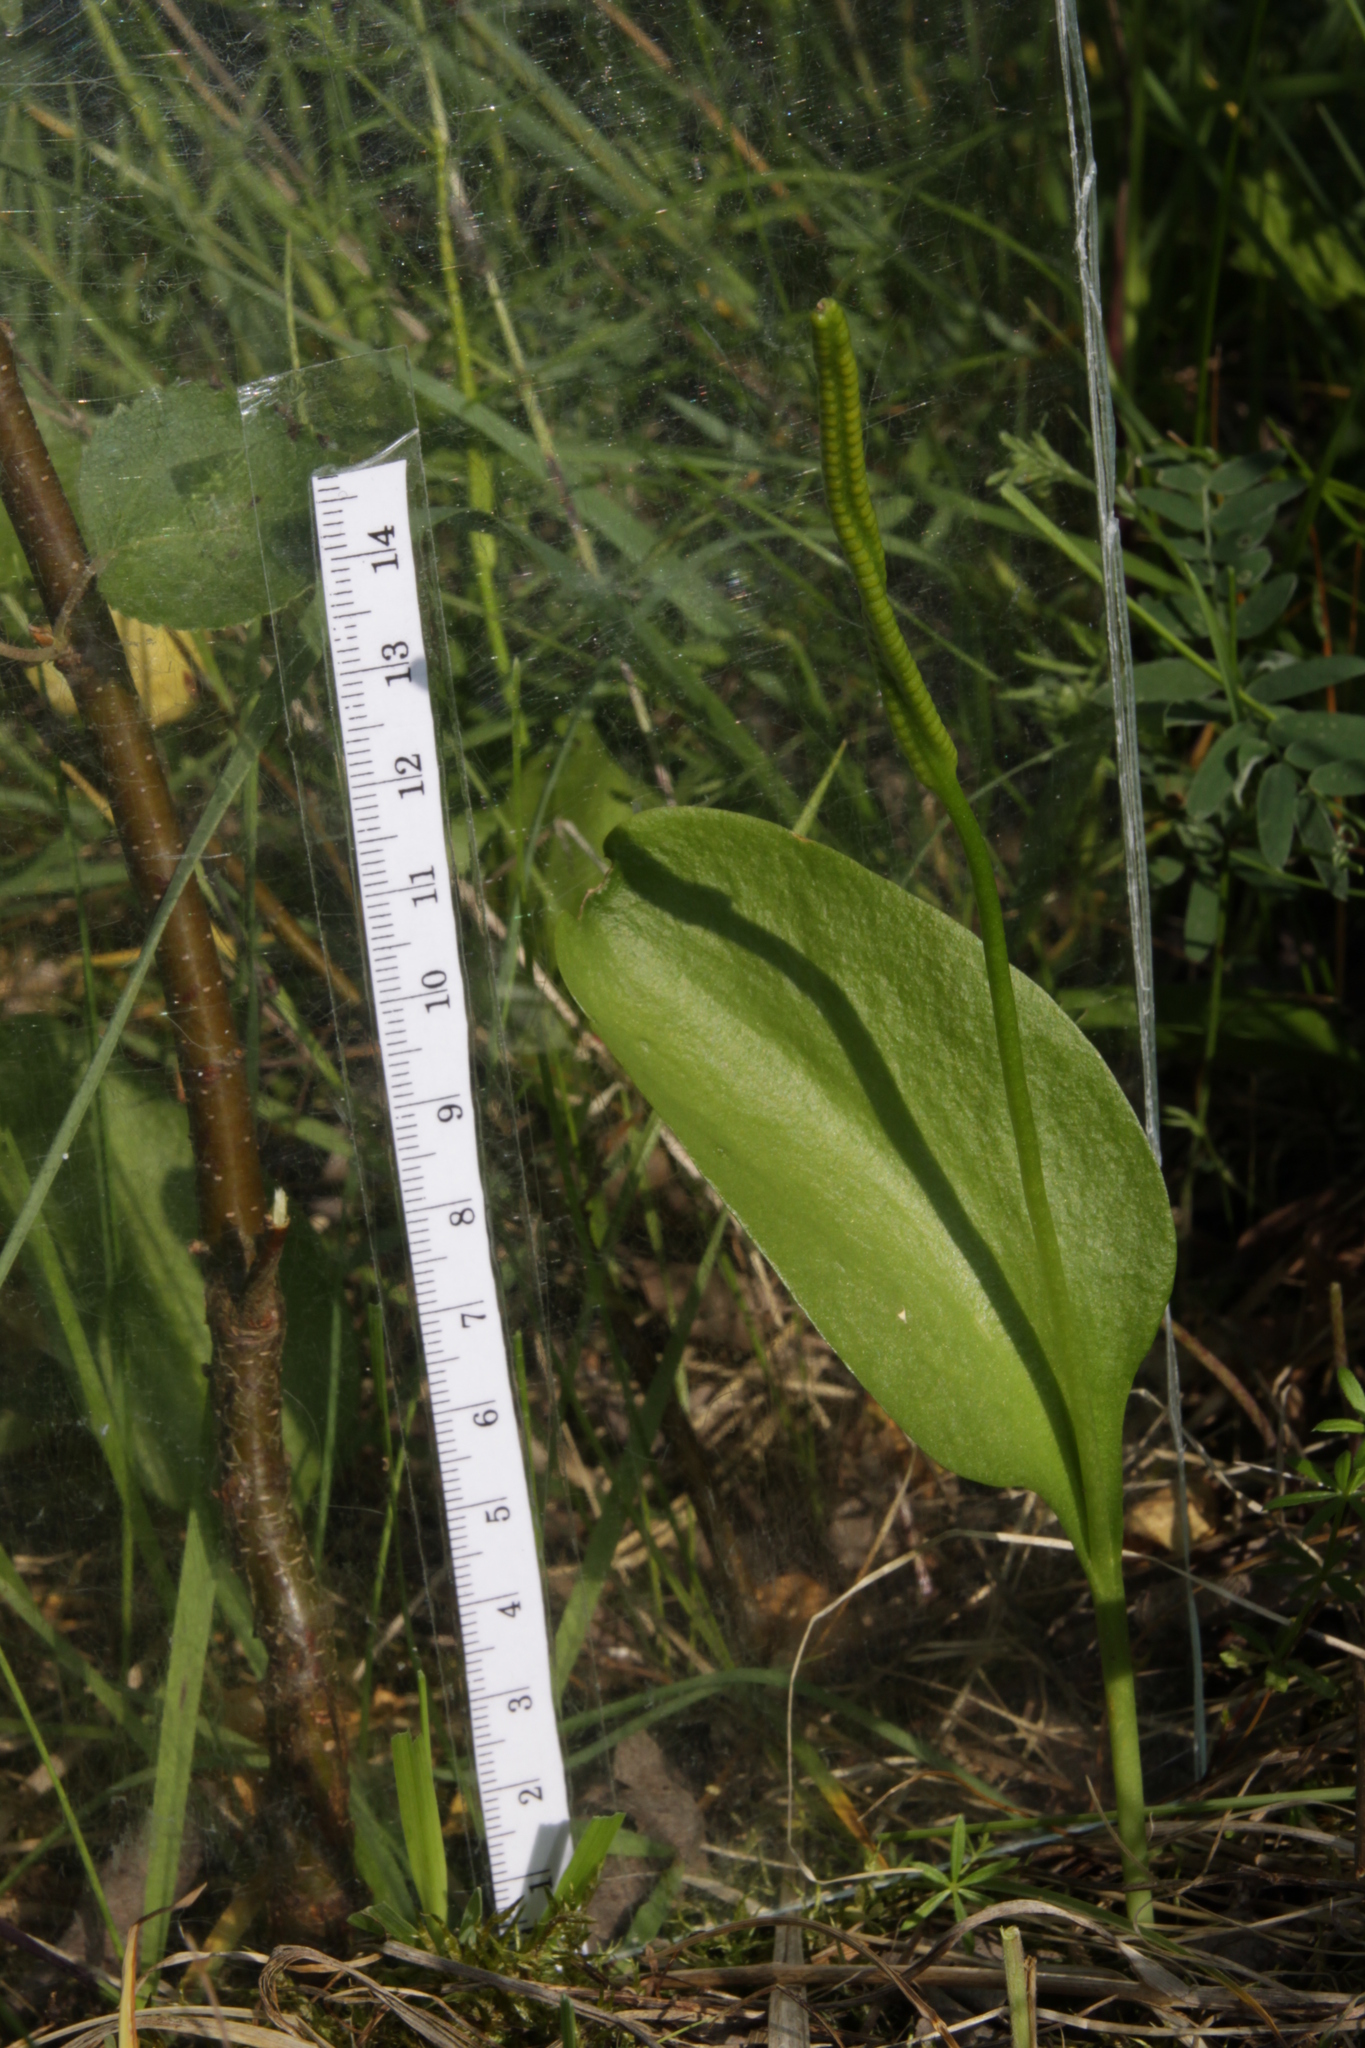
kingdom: Plantae
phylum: Tracheophyta
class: Polypodiopsida
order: Ophioglossales
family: Ophioglossaceae
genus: Ophioglossum
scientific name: Ophioglossum vulgatum
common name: Adder's-tongue
